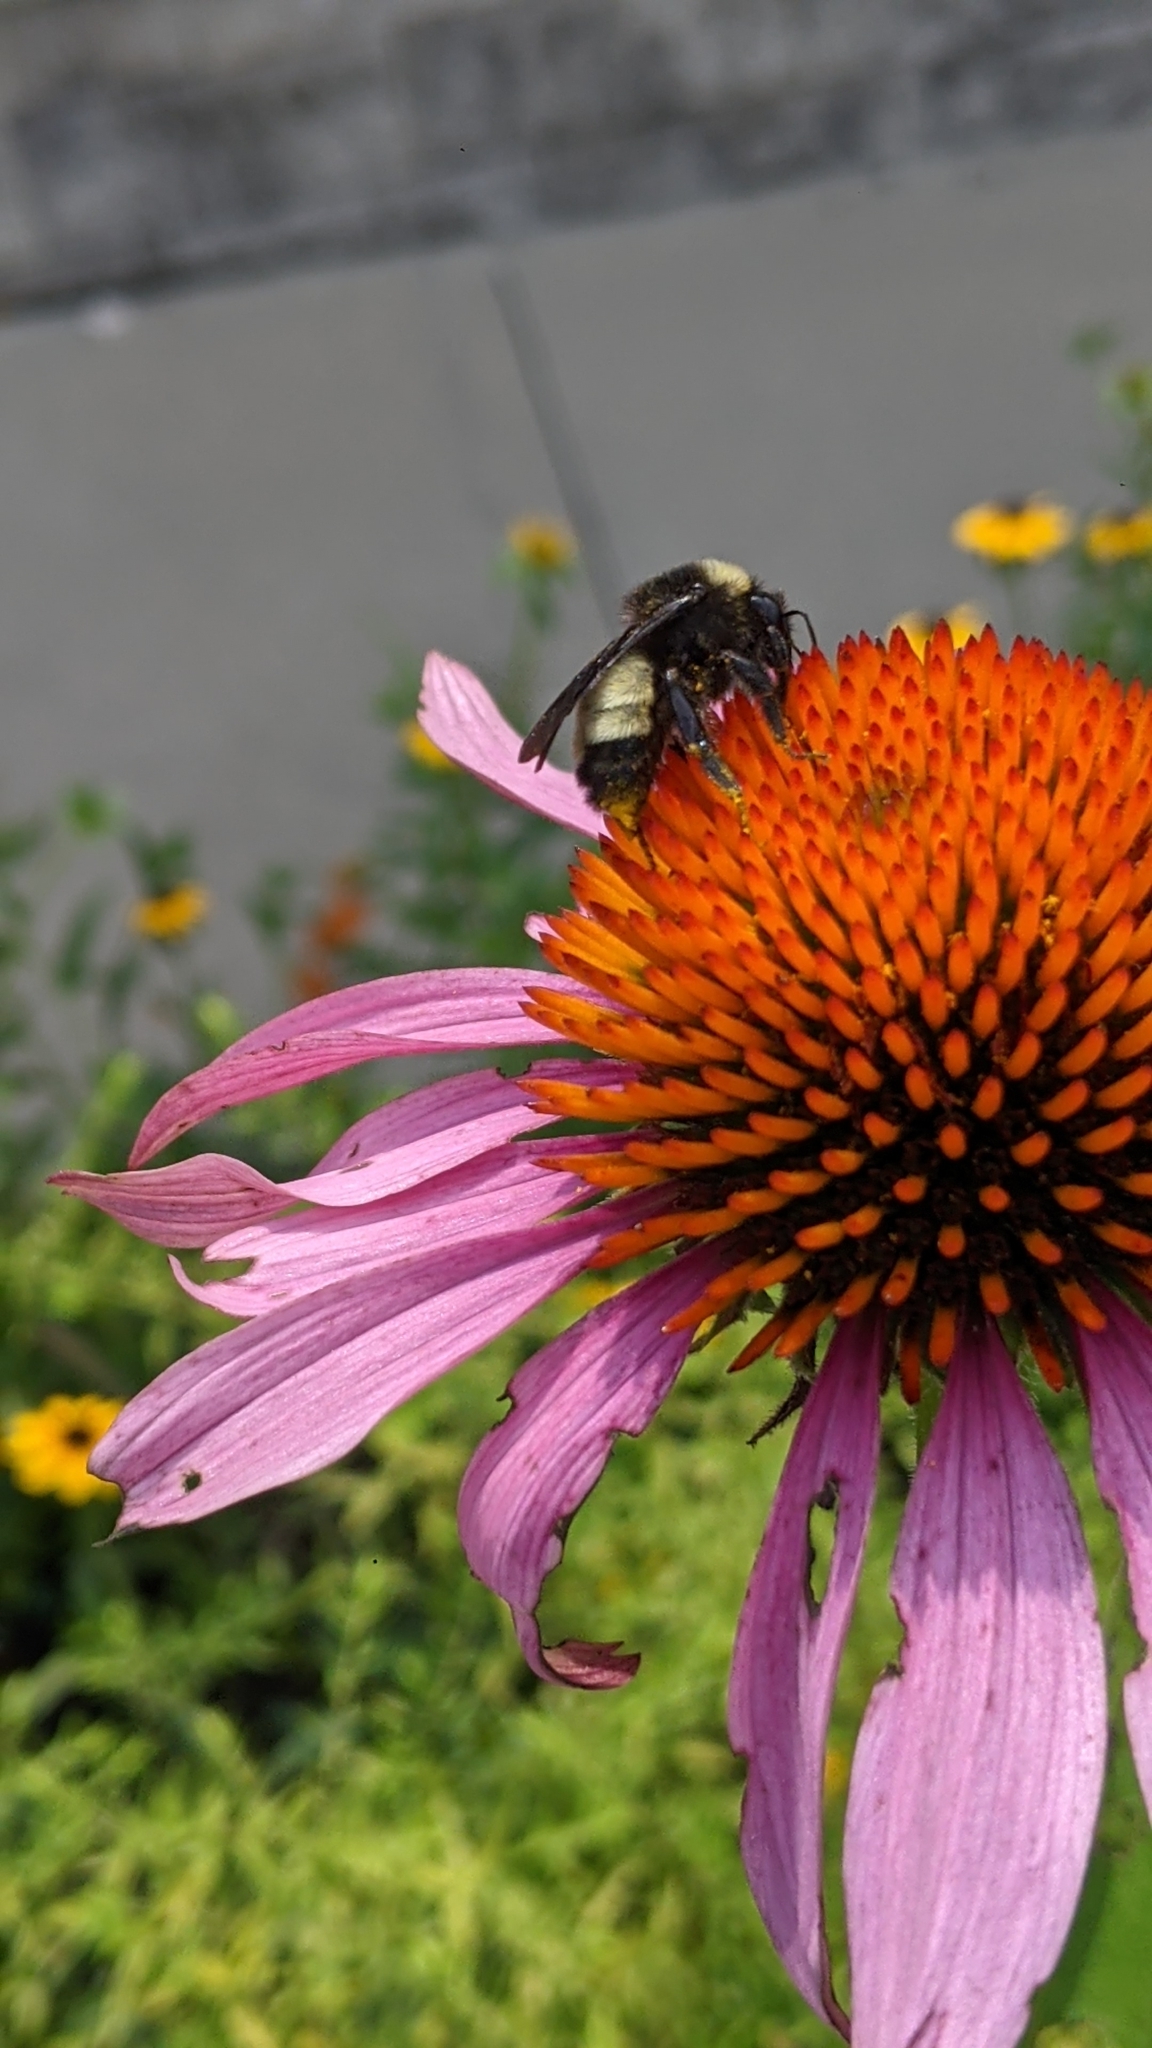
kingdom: Animalia
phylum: Arthropoda
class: Insecta
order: Hymenoptera
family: Apidae
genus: Bombus
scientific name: Bombus pensylvanicus
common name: Bumble bee
